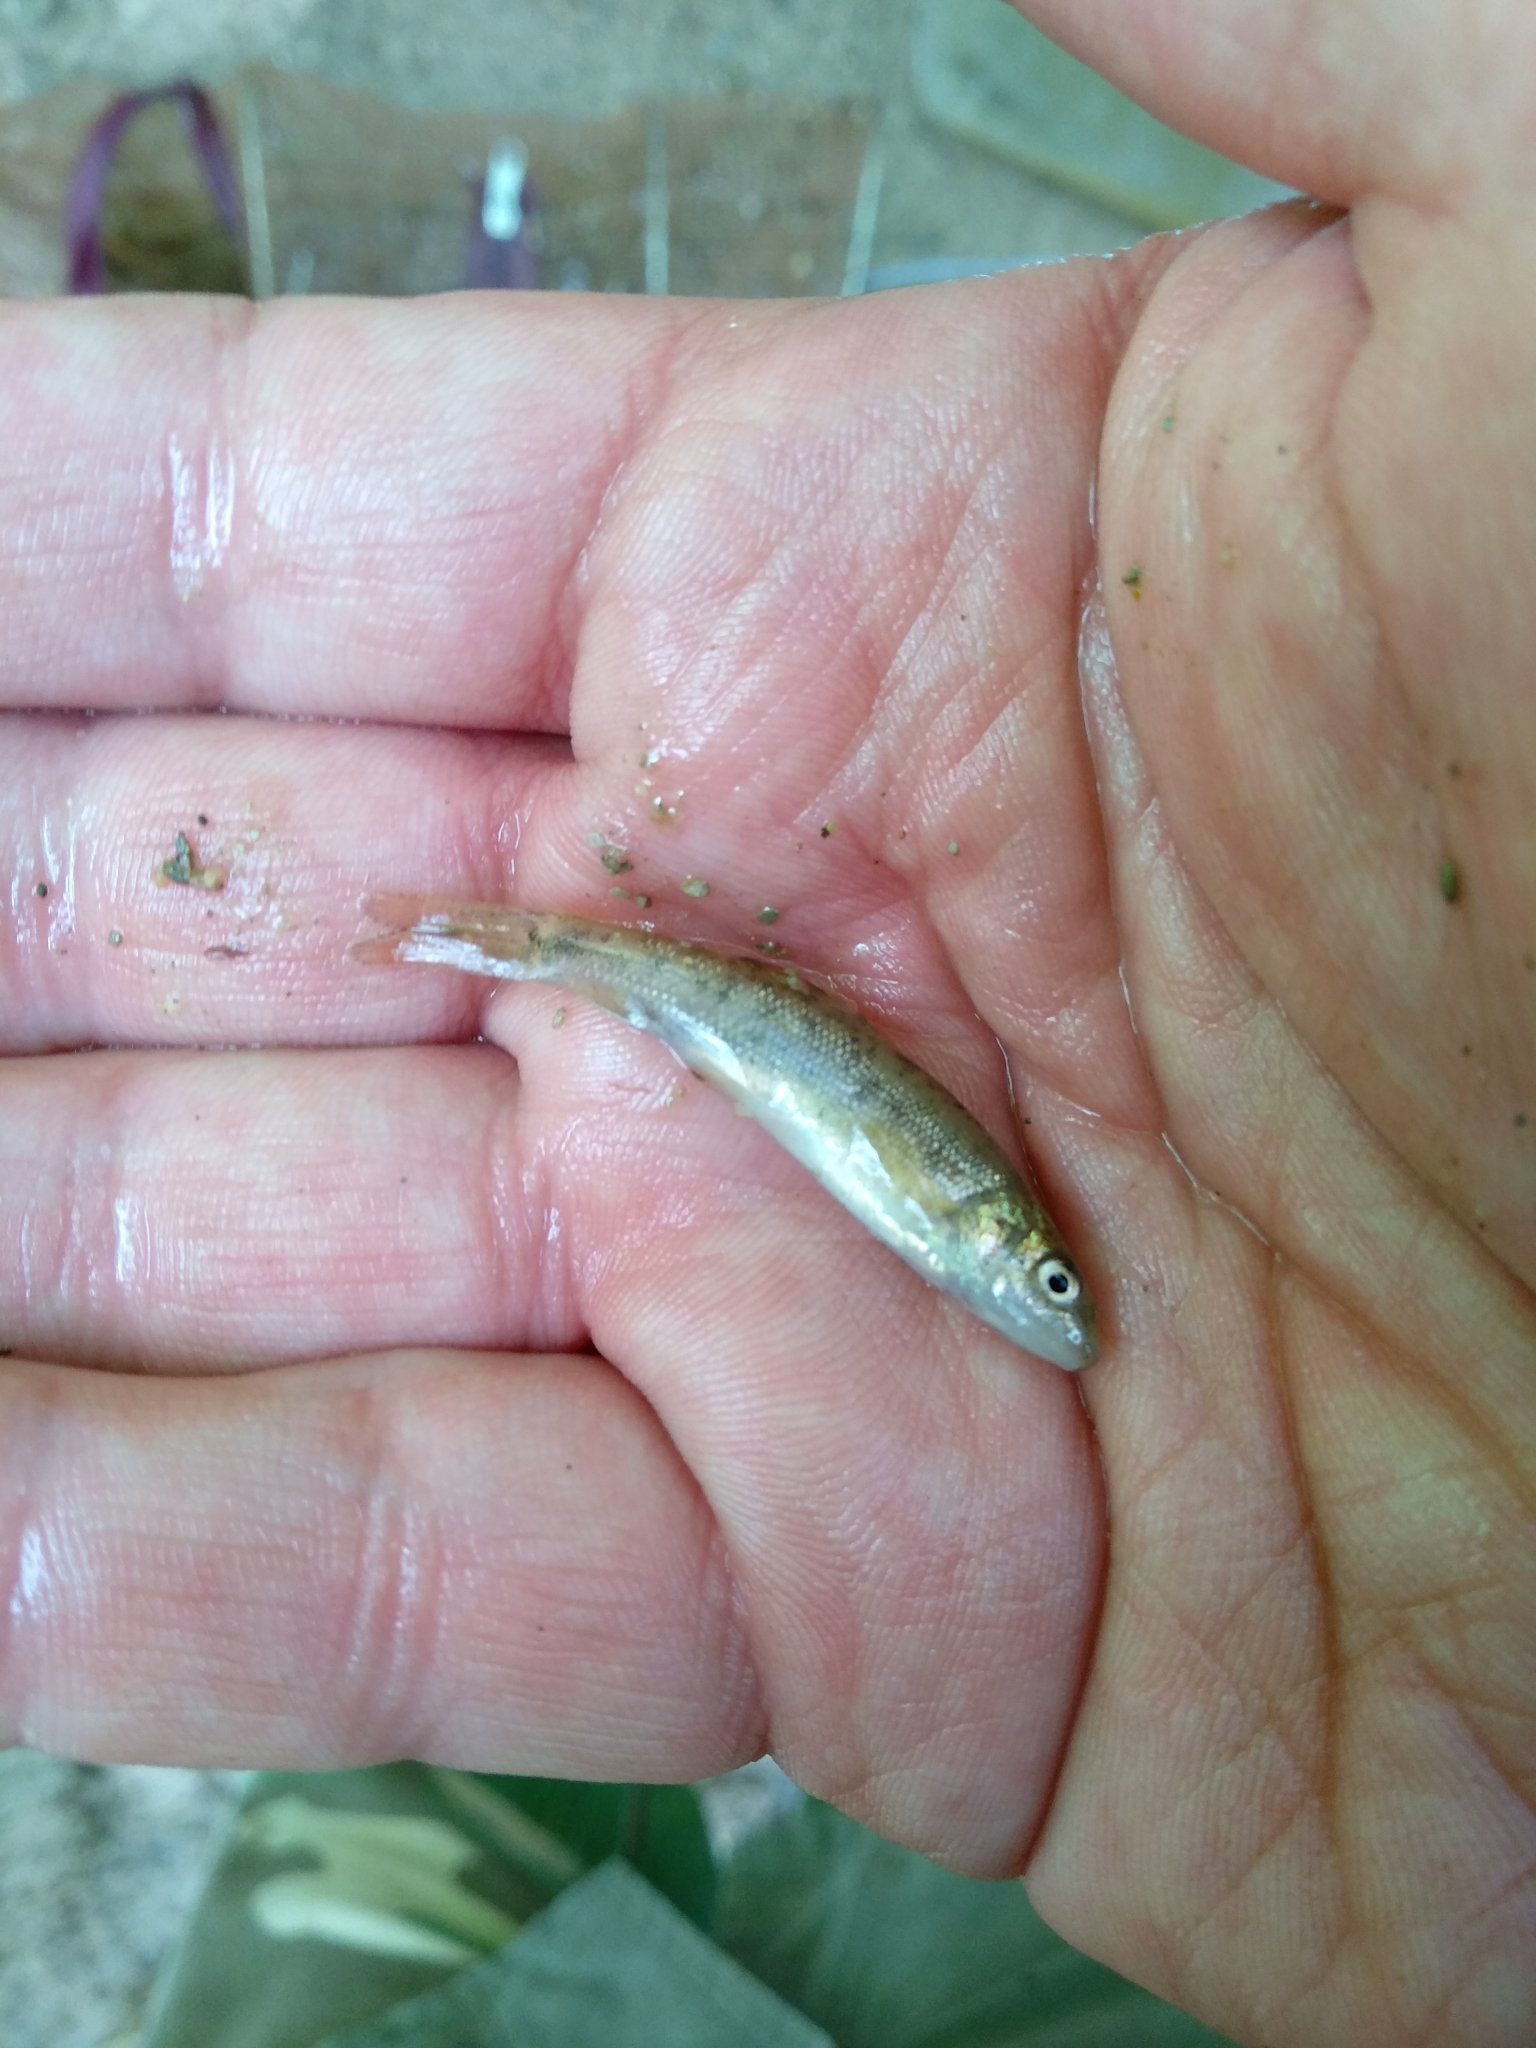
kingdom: Animalia
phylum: Chordata
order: Cypriniformes
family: Cyprinidae
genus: Barbus
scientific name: Barbus tyberinus
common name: Horse barbel
